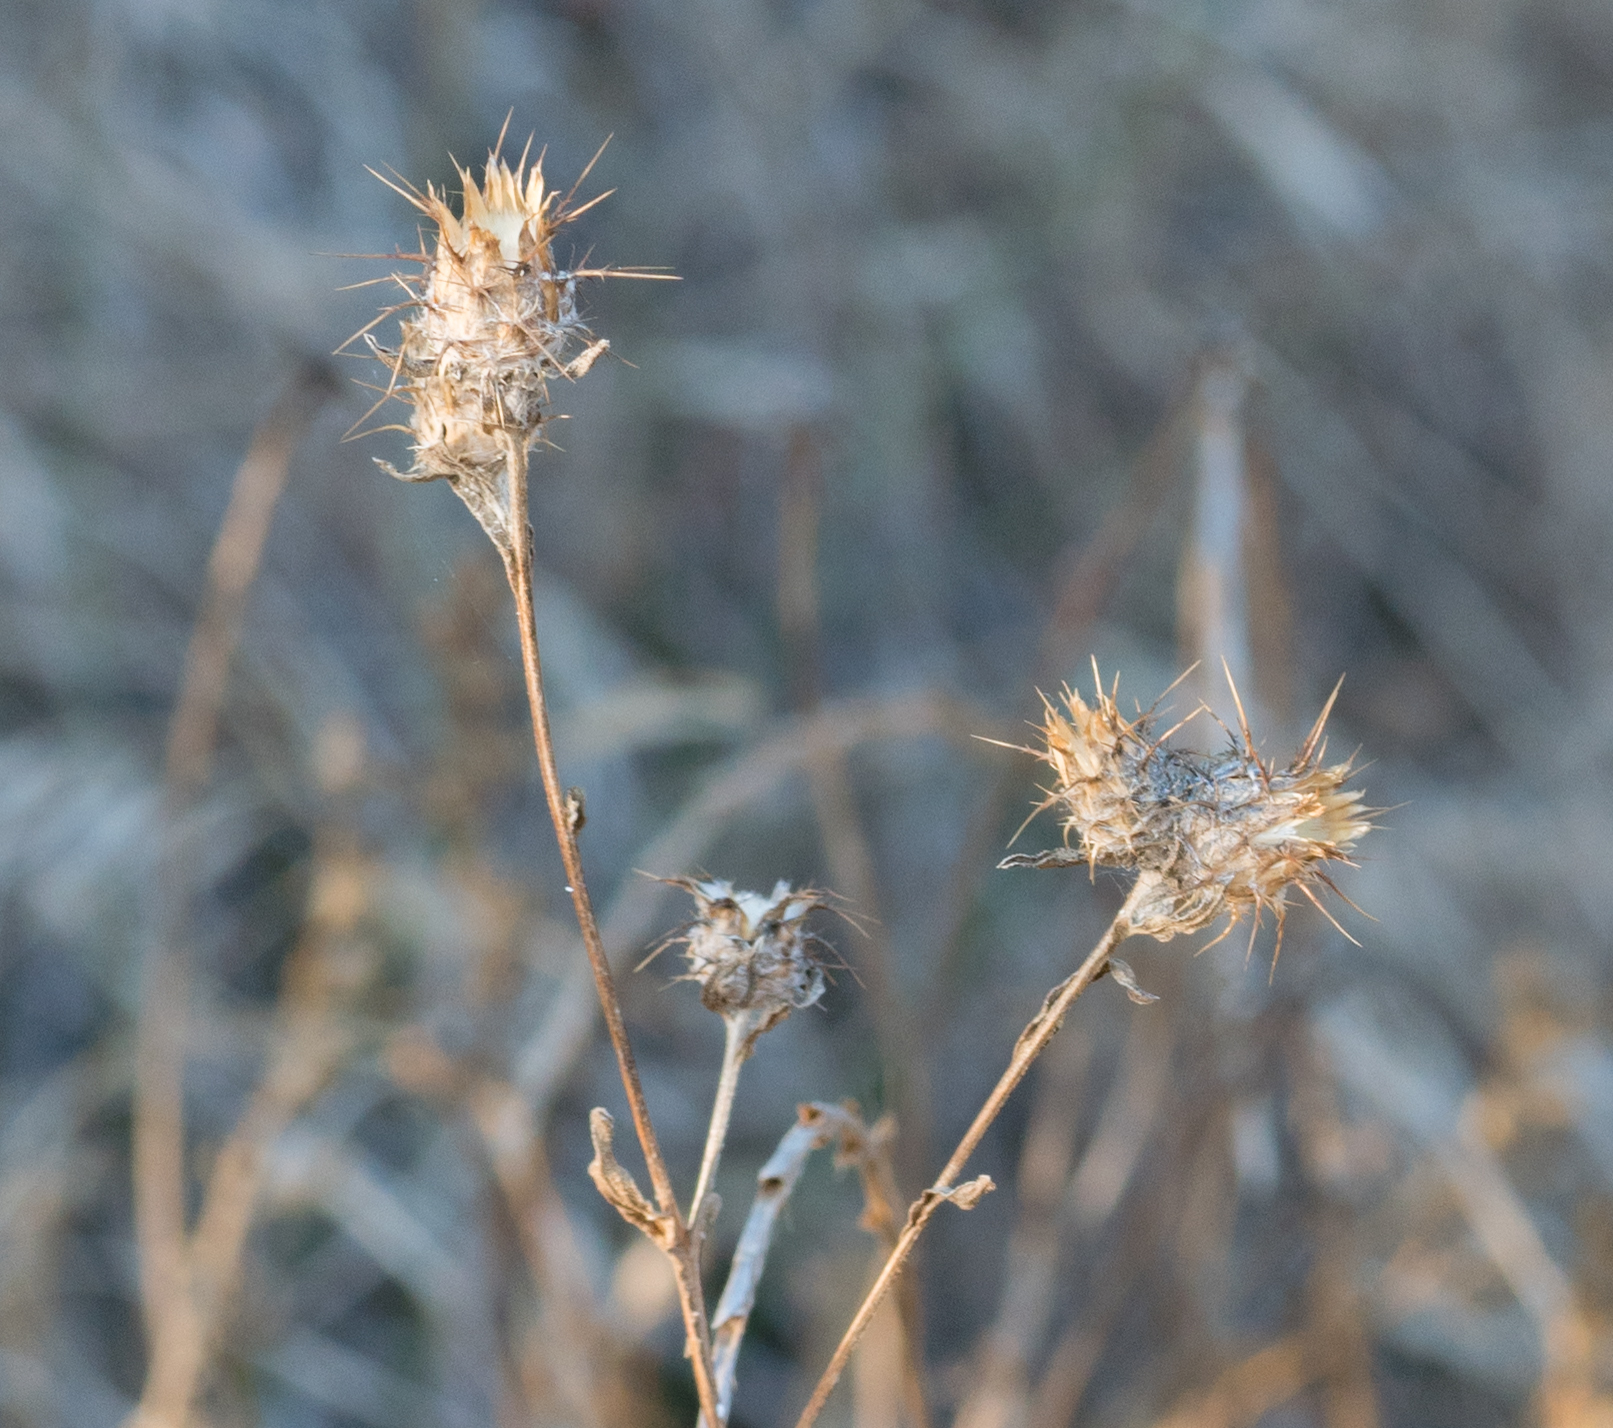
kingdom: Plantae
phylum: Tracheophyta
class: Magnoliopsida
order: Asterales
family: Asteraceae
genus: Centaurea
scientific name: Centaurea melitensis
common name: Maltese star-thistle
